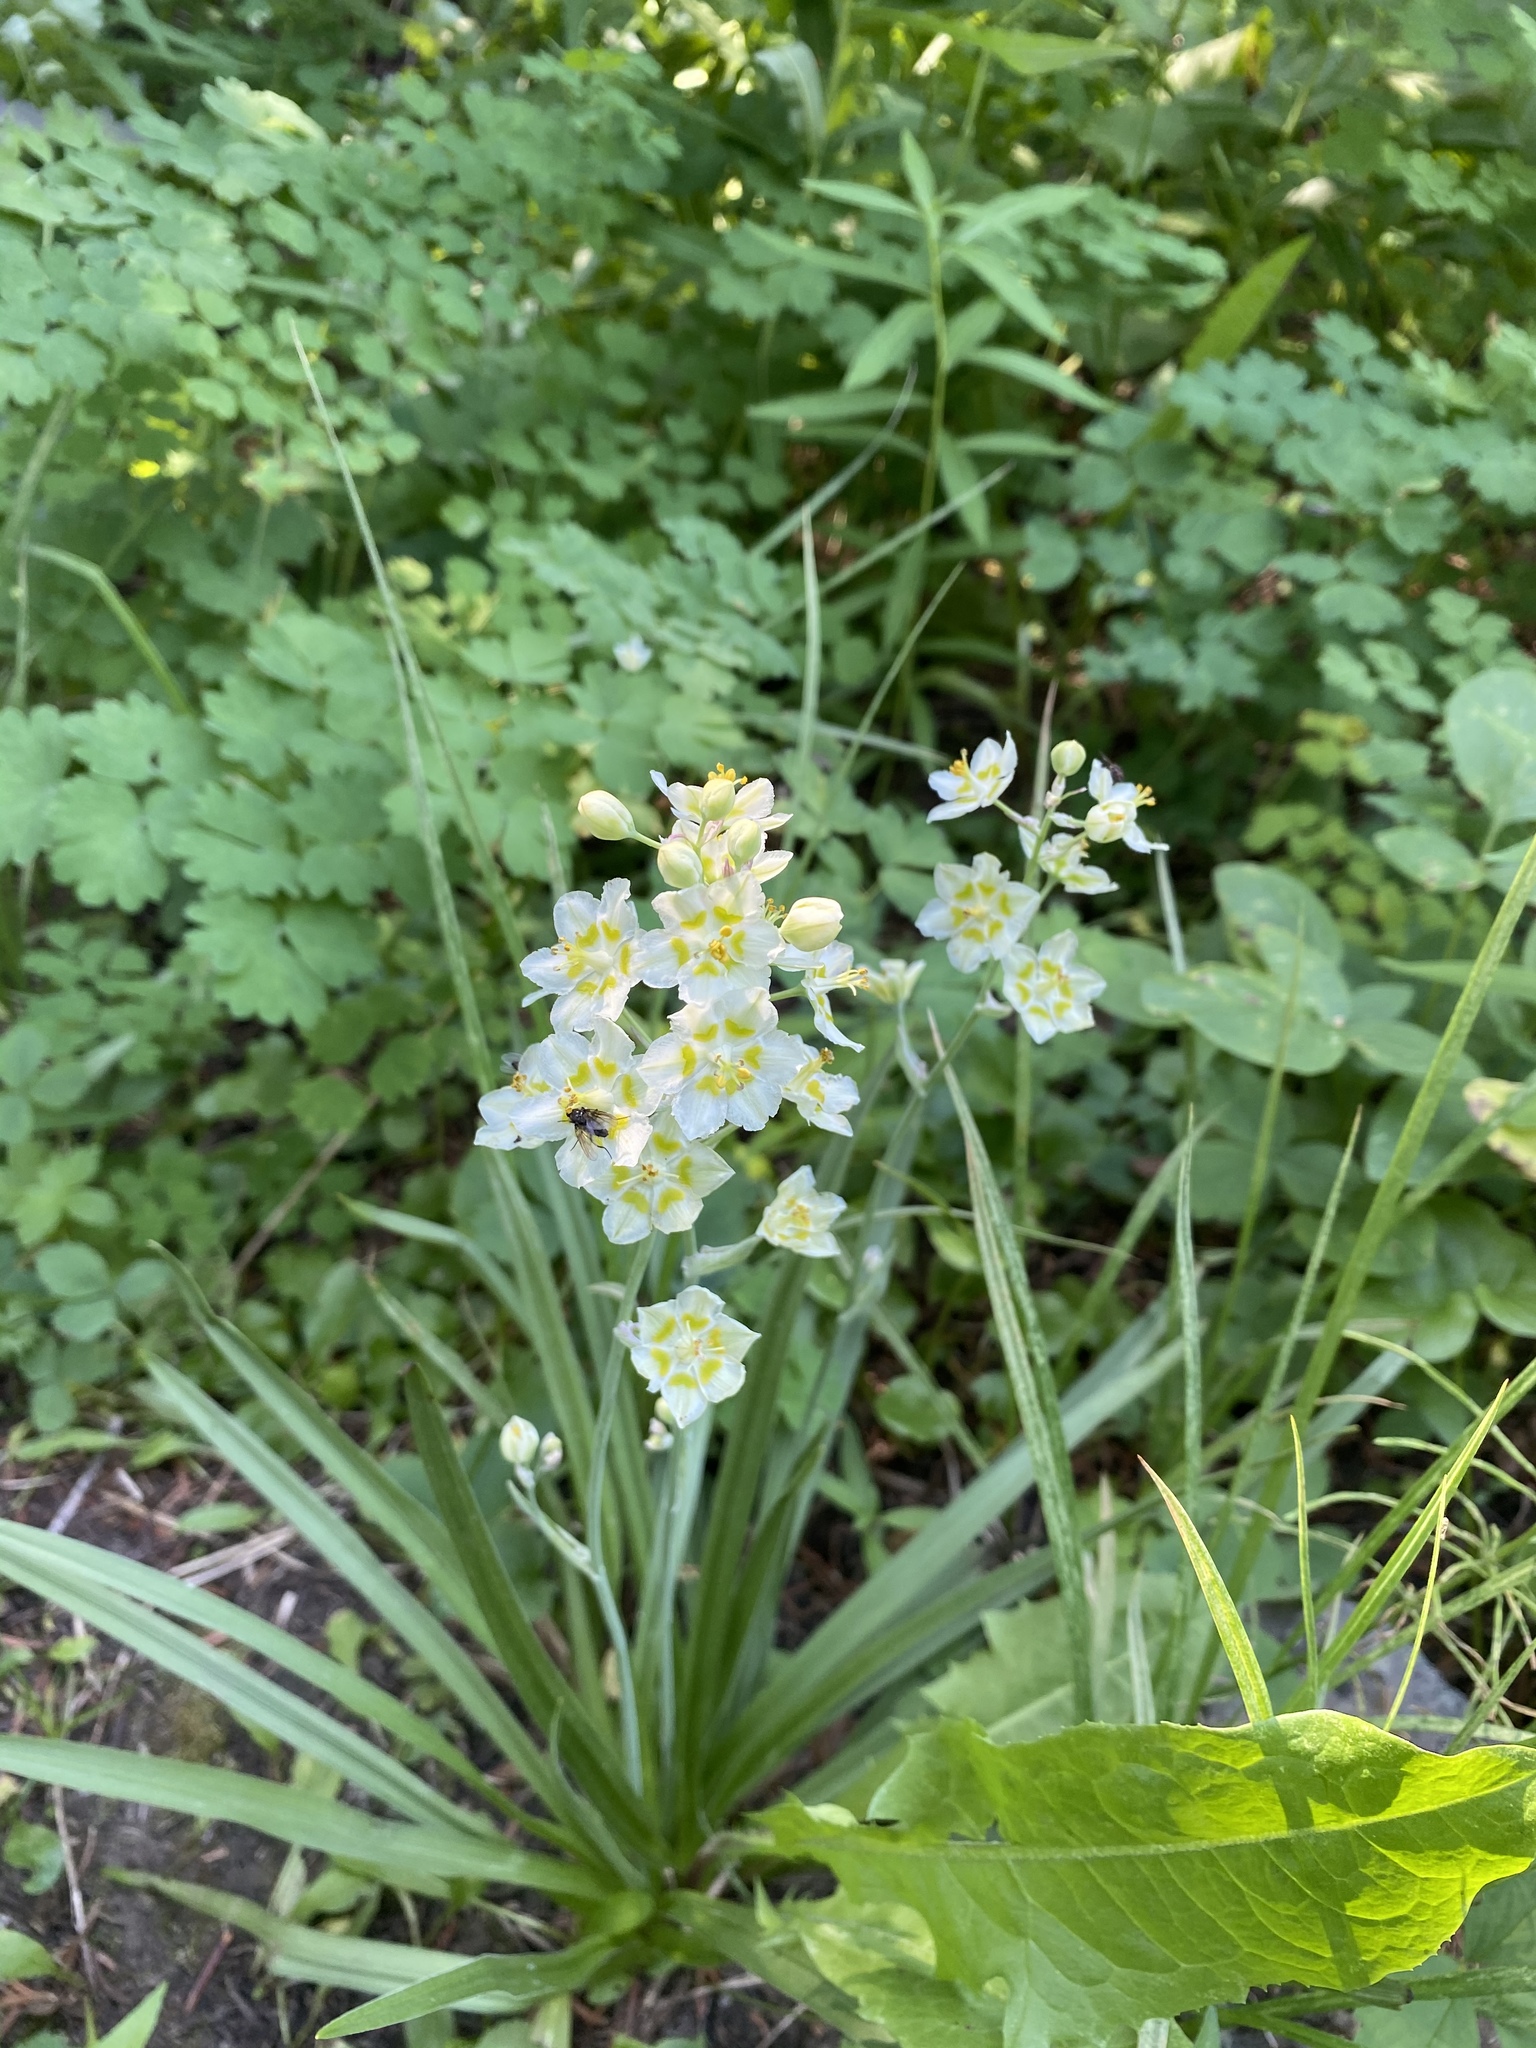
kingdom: Plantae
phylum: Tracheophyta
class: Liliopsida
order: Liliales
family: Melanthiaceae
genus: Anticlea
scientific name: Anticlea elegans
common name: Mountain death camas
